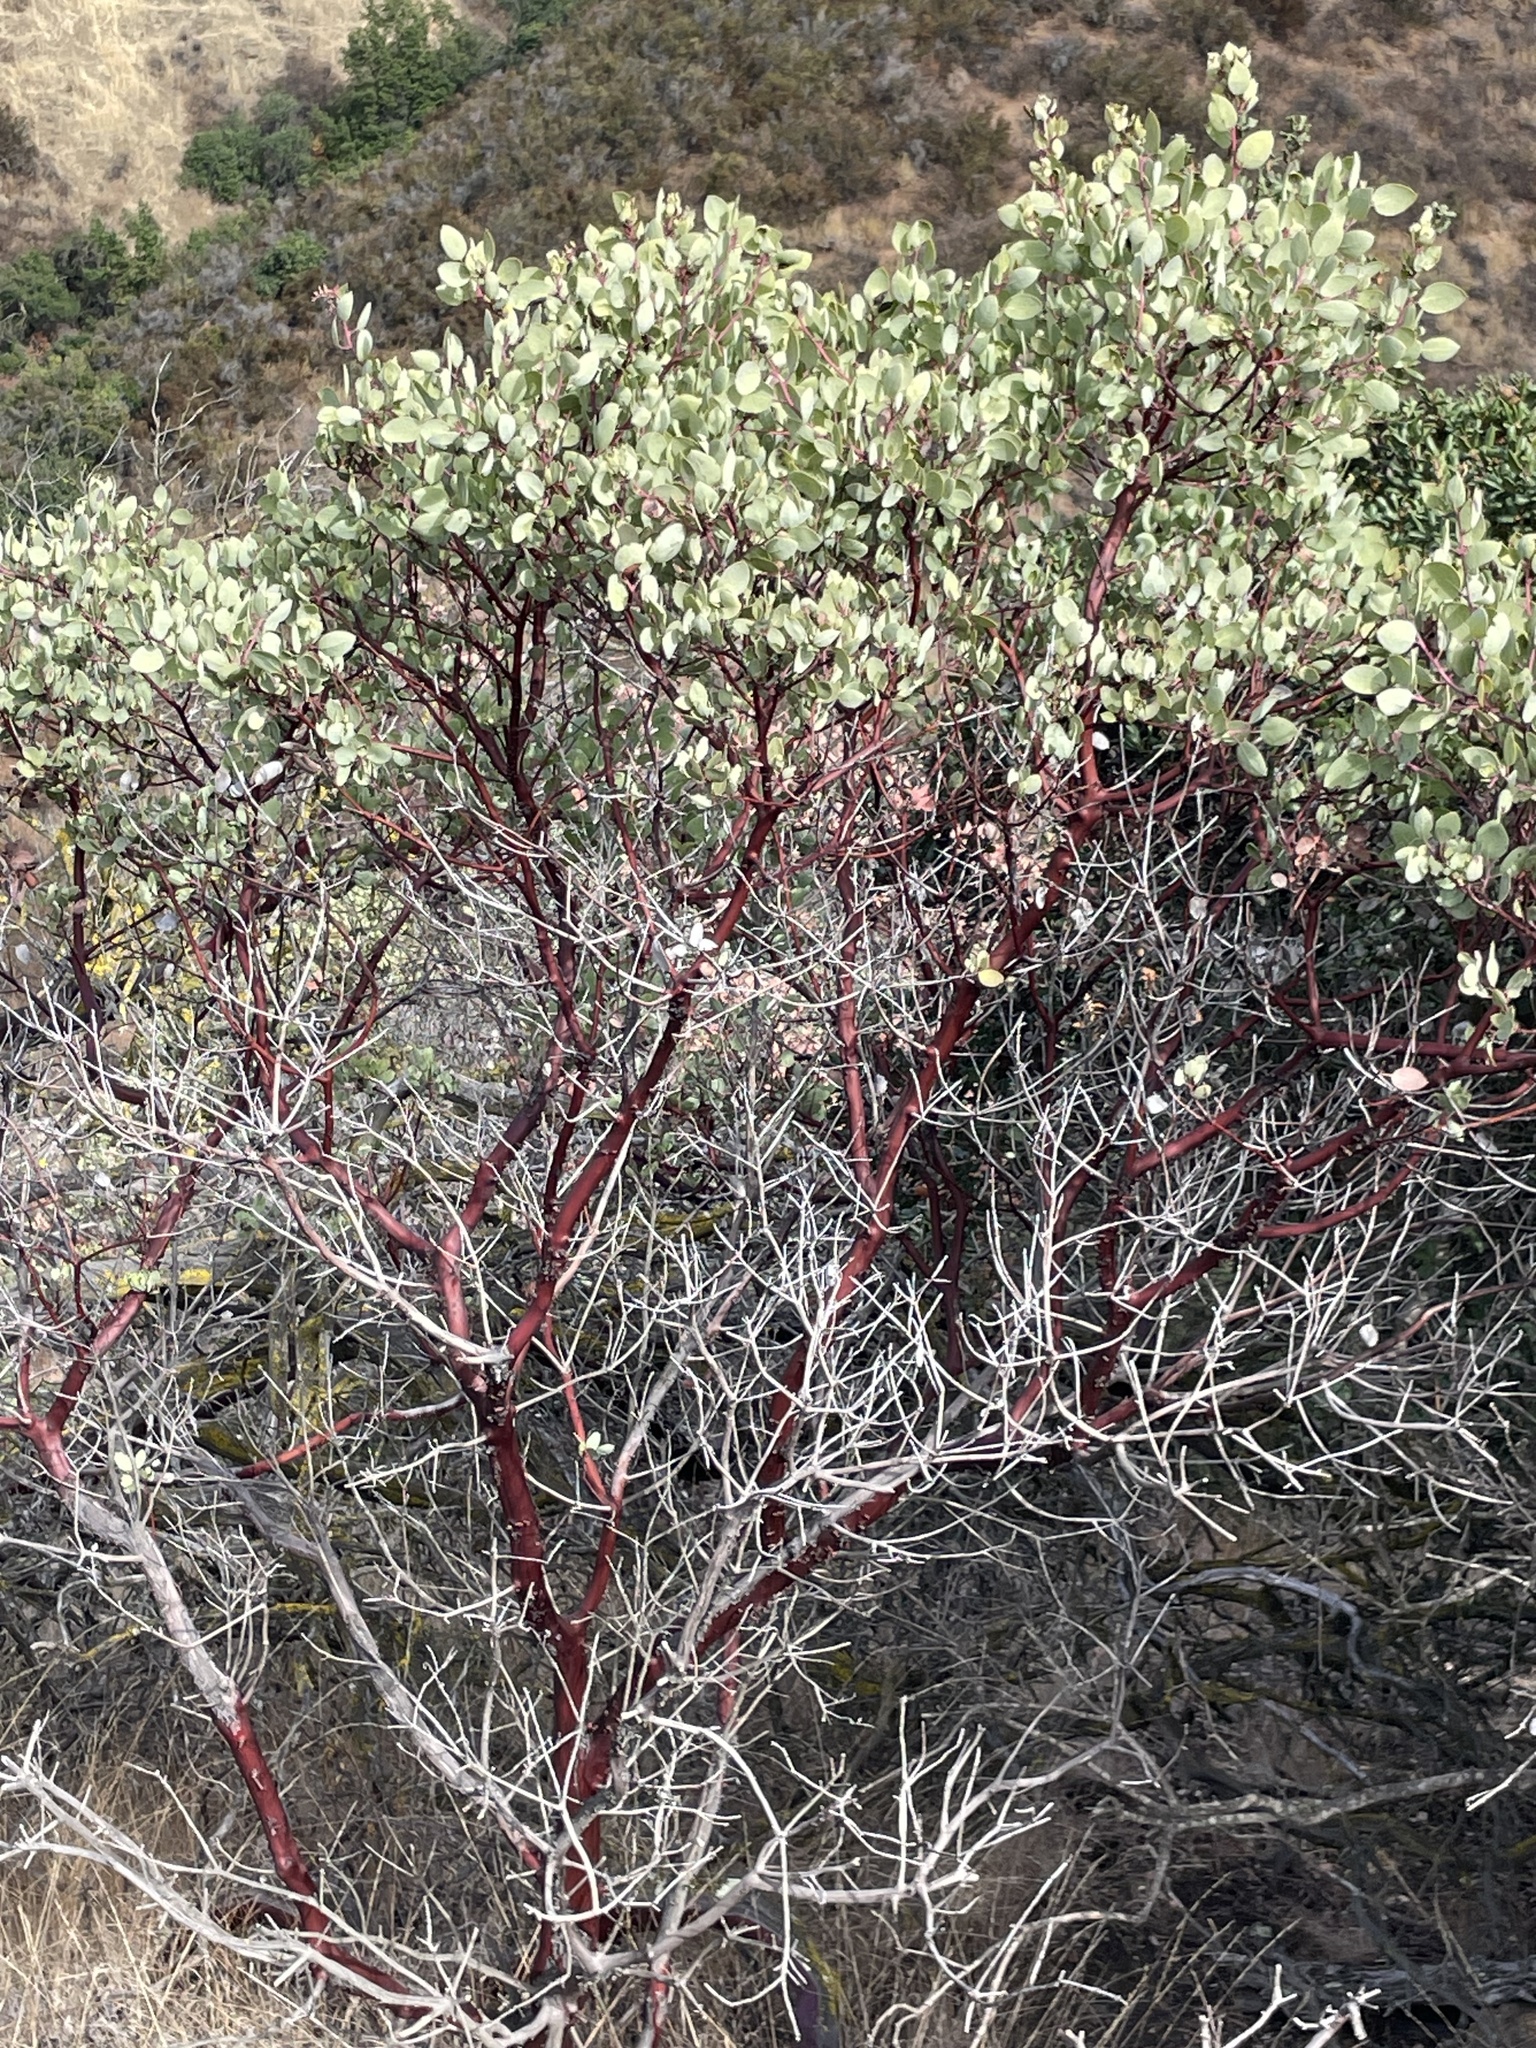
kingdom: Plantae
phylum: Tracheophyta
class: Magnoliopsida
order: Ericales
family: Ericaceae
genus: Arctostaphylos
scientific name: Arctostaphylos glauca
